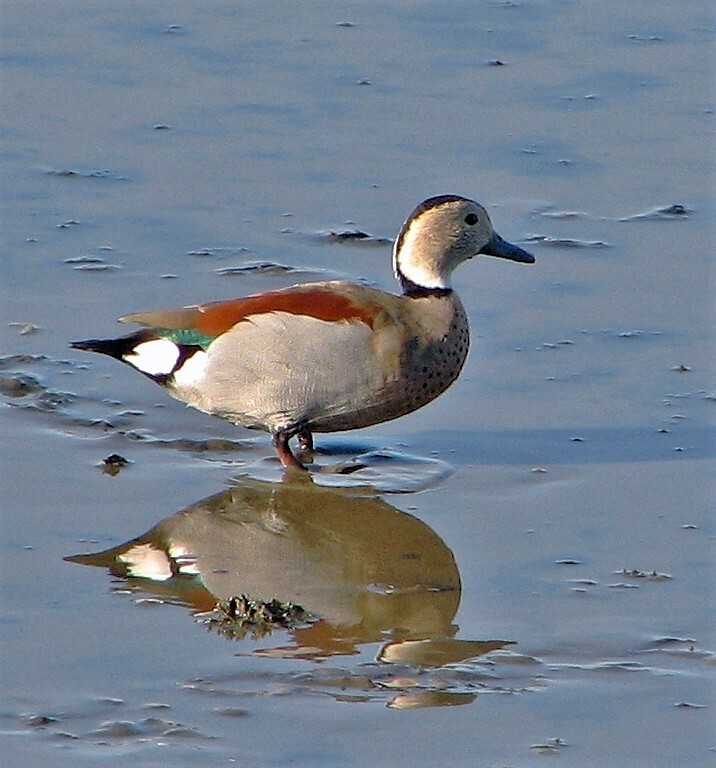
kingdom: Animalia
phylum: Chordata
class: Aves
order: Anseriformes
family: Anatidae
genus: Callonetta
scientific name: Callonetta leucophrys
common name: Ringed teal
